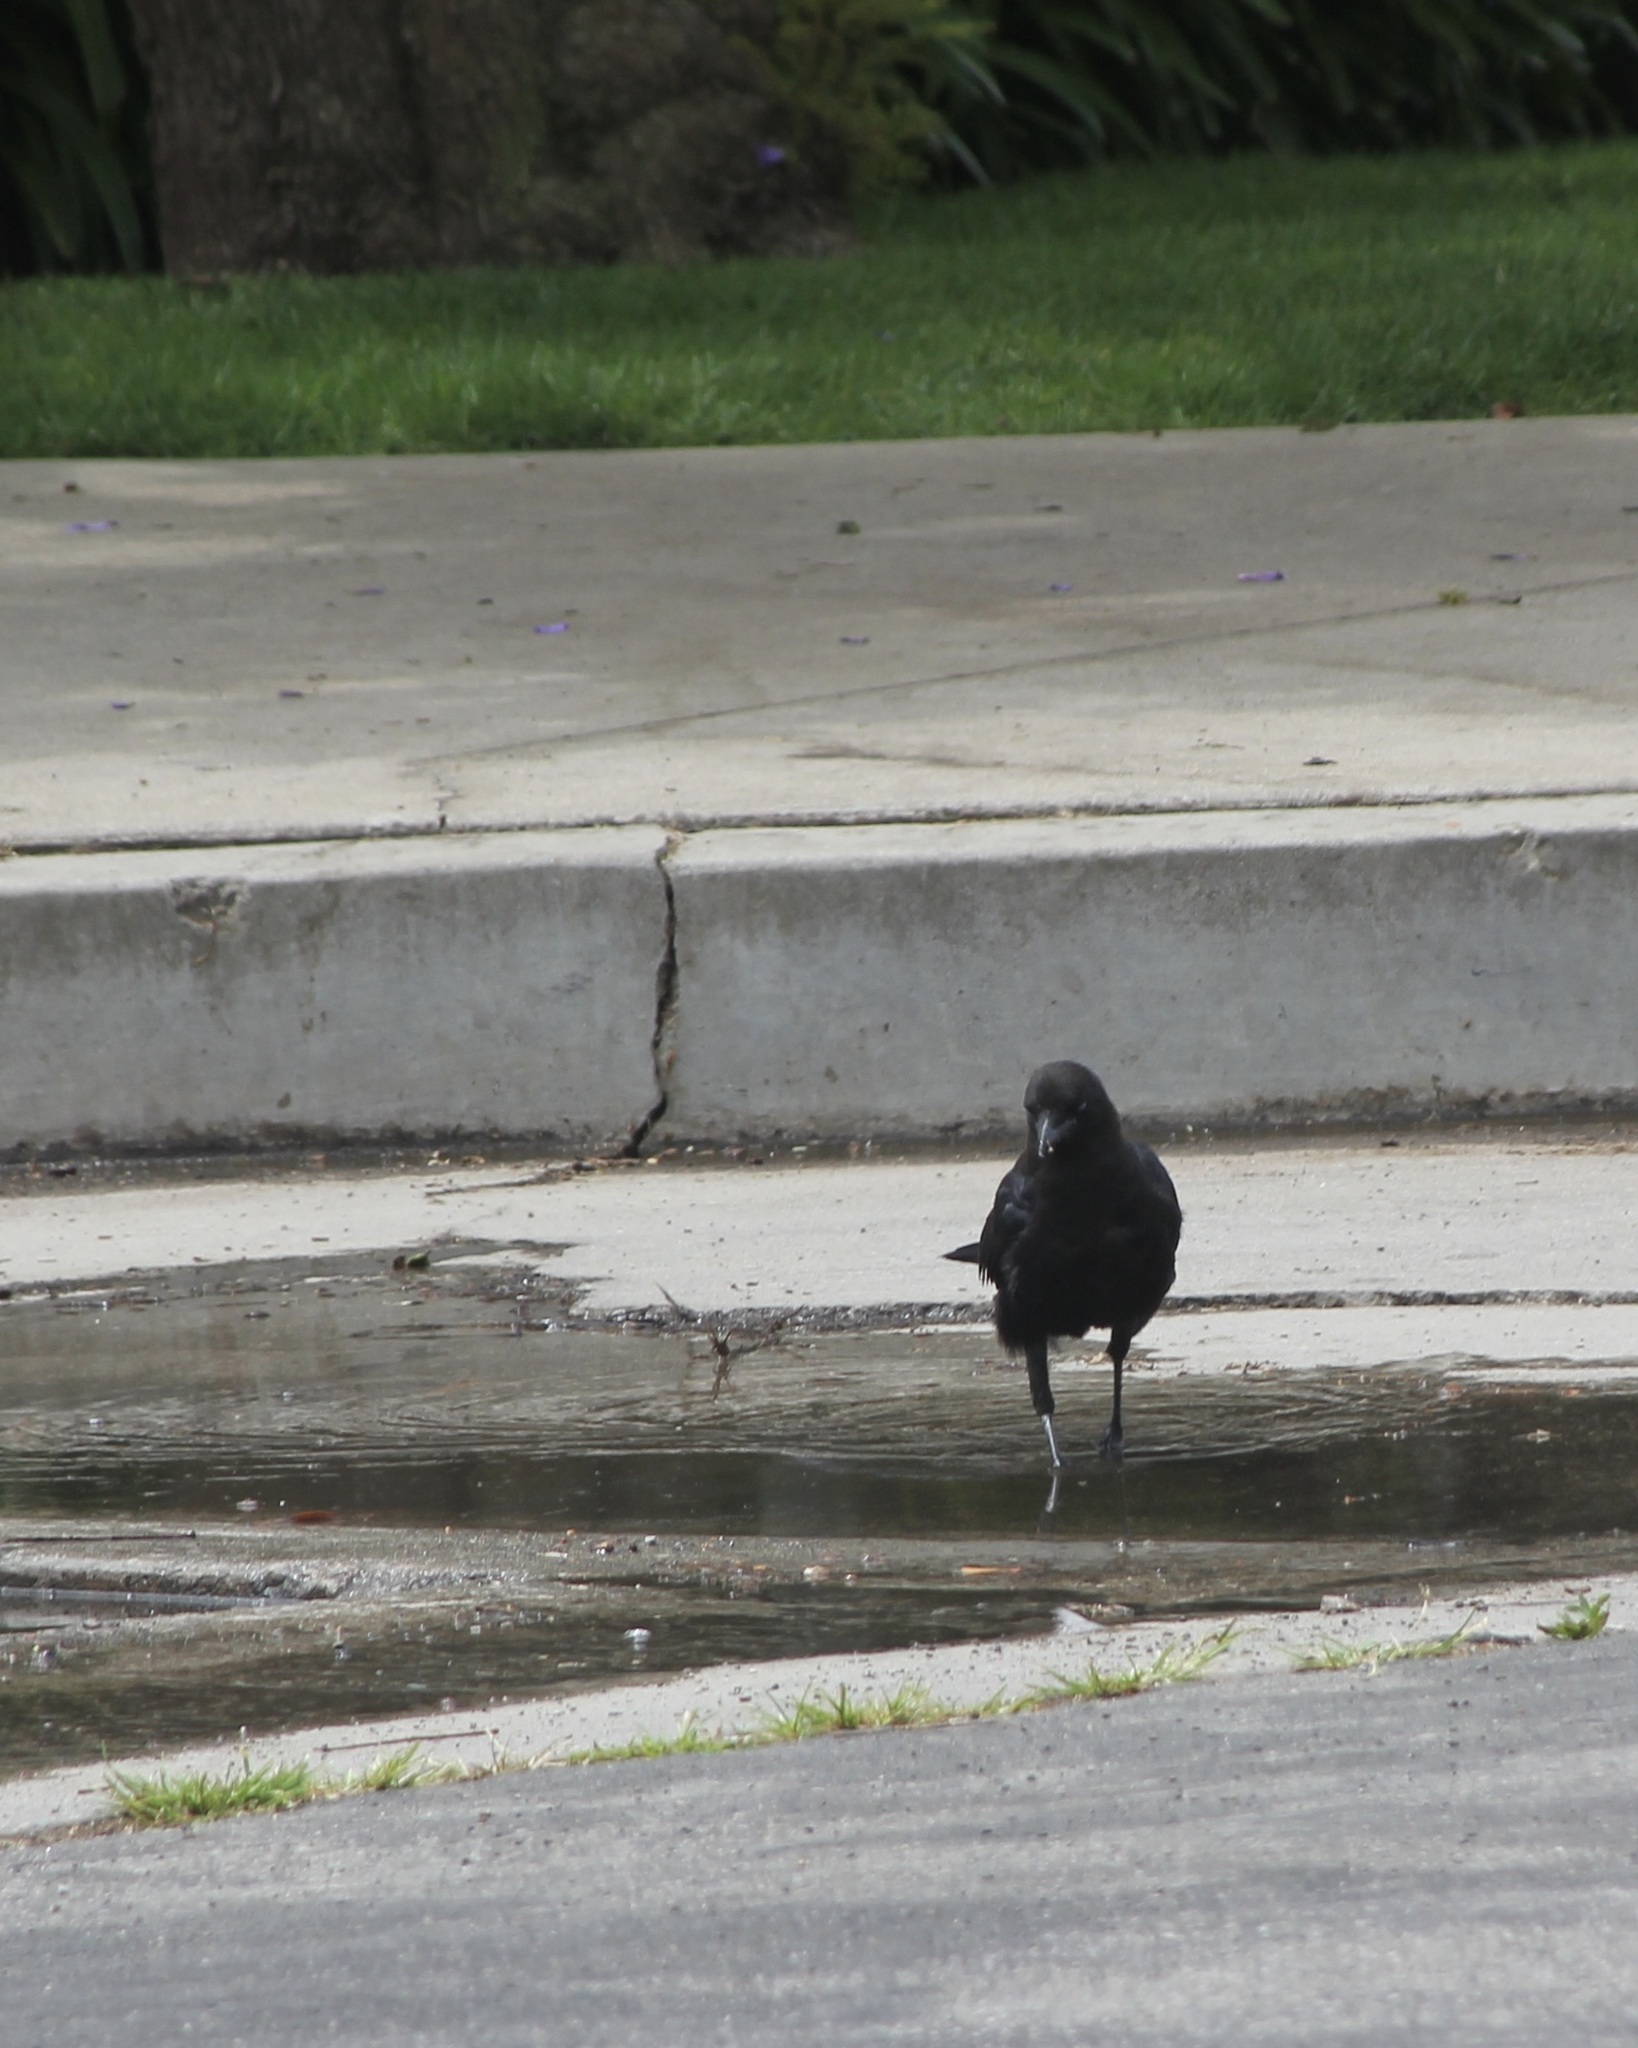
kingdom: Animalia
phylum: Chordata
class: Aves
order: Passeriformes
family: Corvidae
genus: Corvus
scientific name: Corvus brachyrhynchos
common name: American crow
